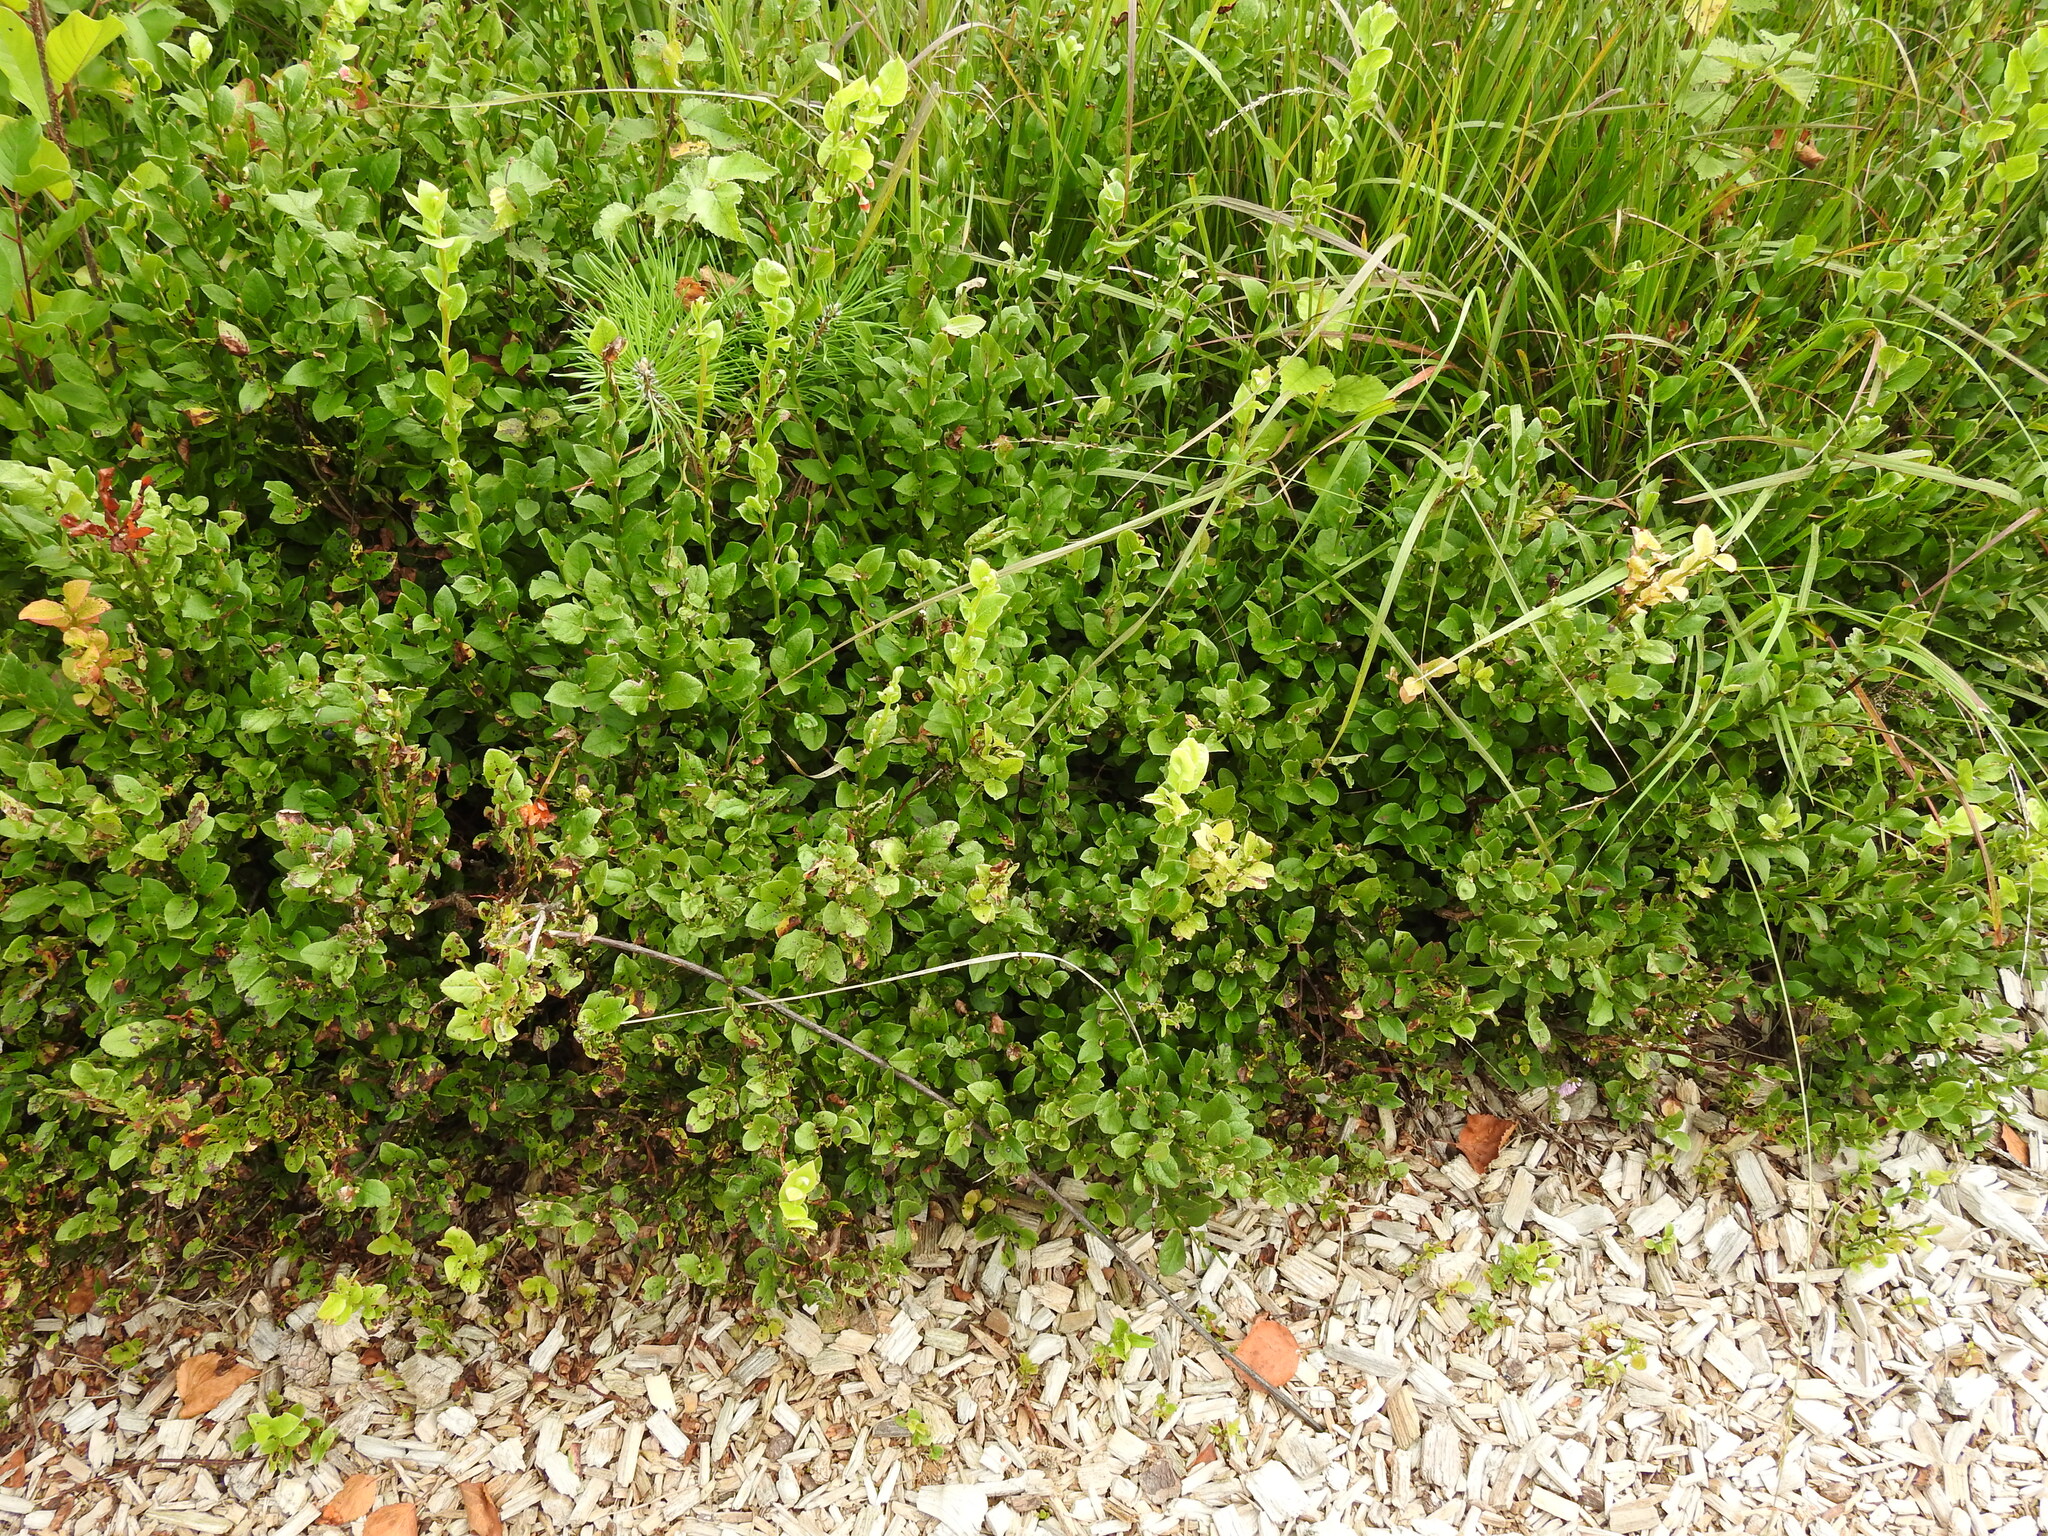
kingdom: Plantae
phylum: Tracheophyta
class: Magnoliopsida
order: Ericales
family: Ericaceae
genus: Vaccinium
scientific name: Vaccinium myrtillus
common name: Bilberry
